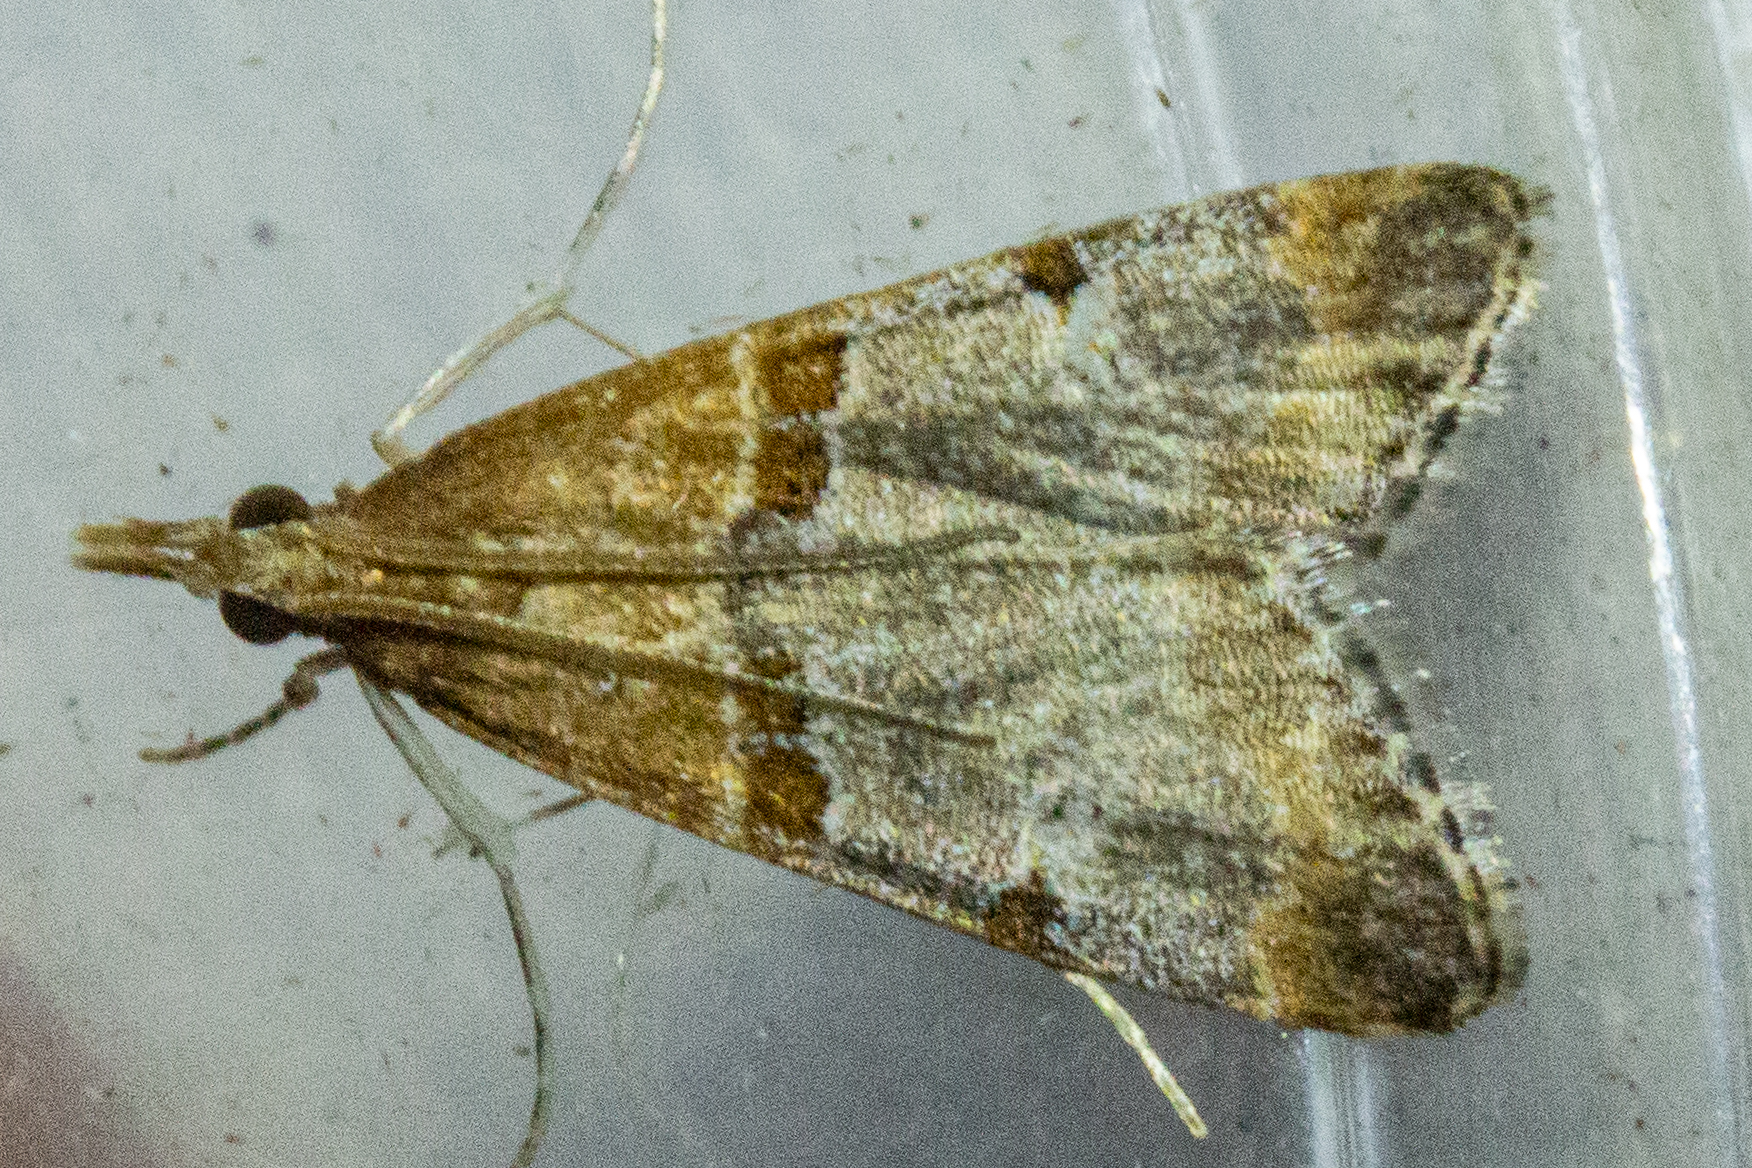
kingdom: Animalia
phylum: Arthropoda
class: Insecta
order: Lepidoptera
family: Crambidae
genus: Antiscopa
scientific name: Antiscopa epicomia
